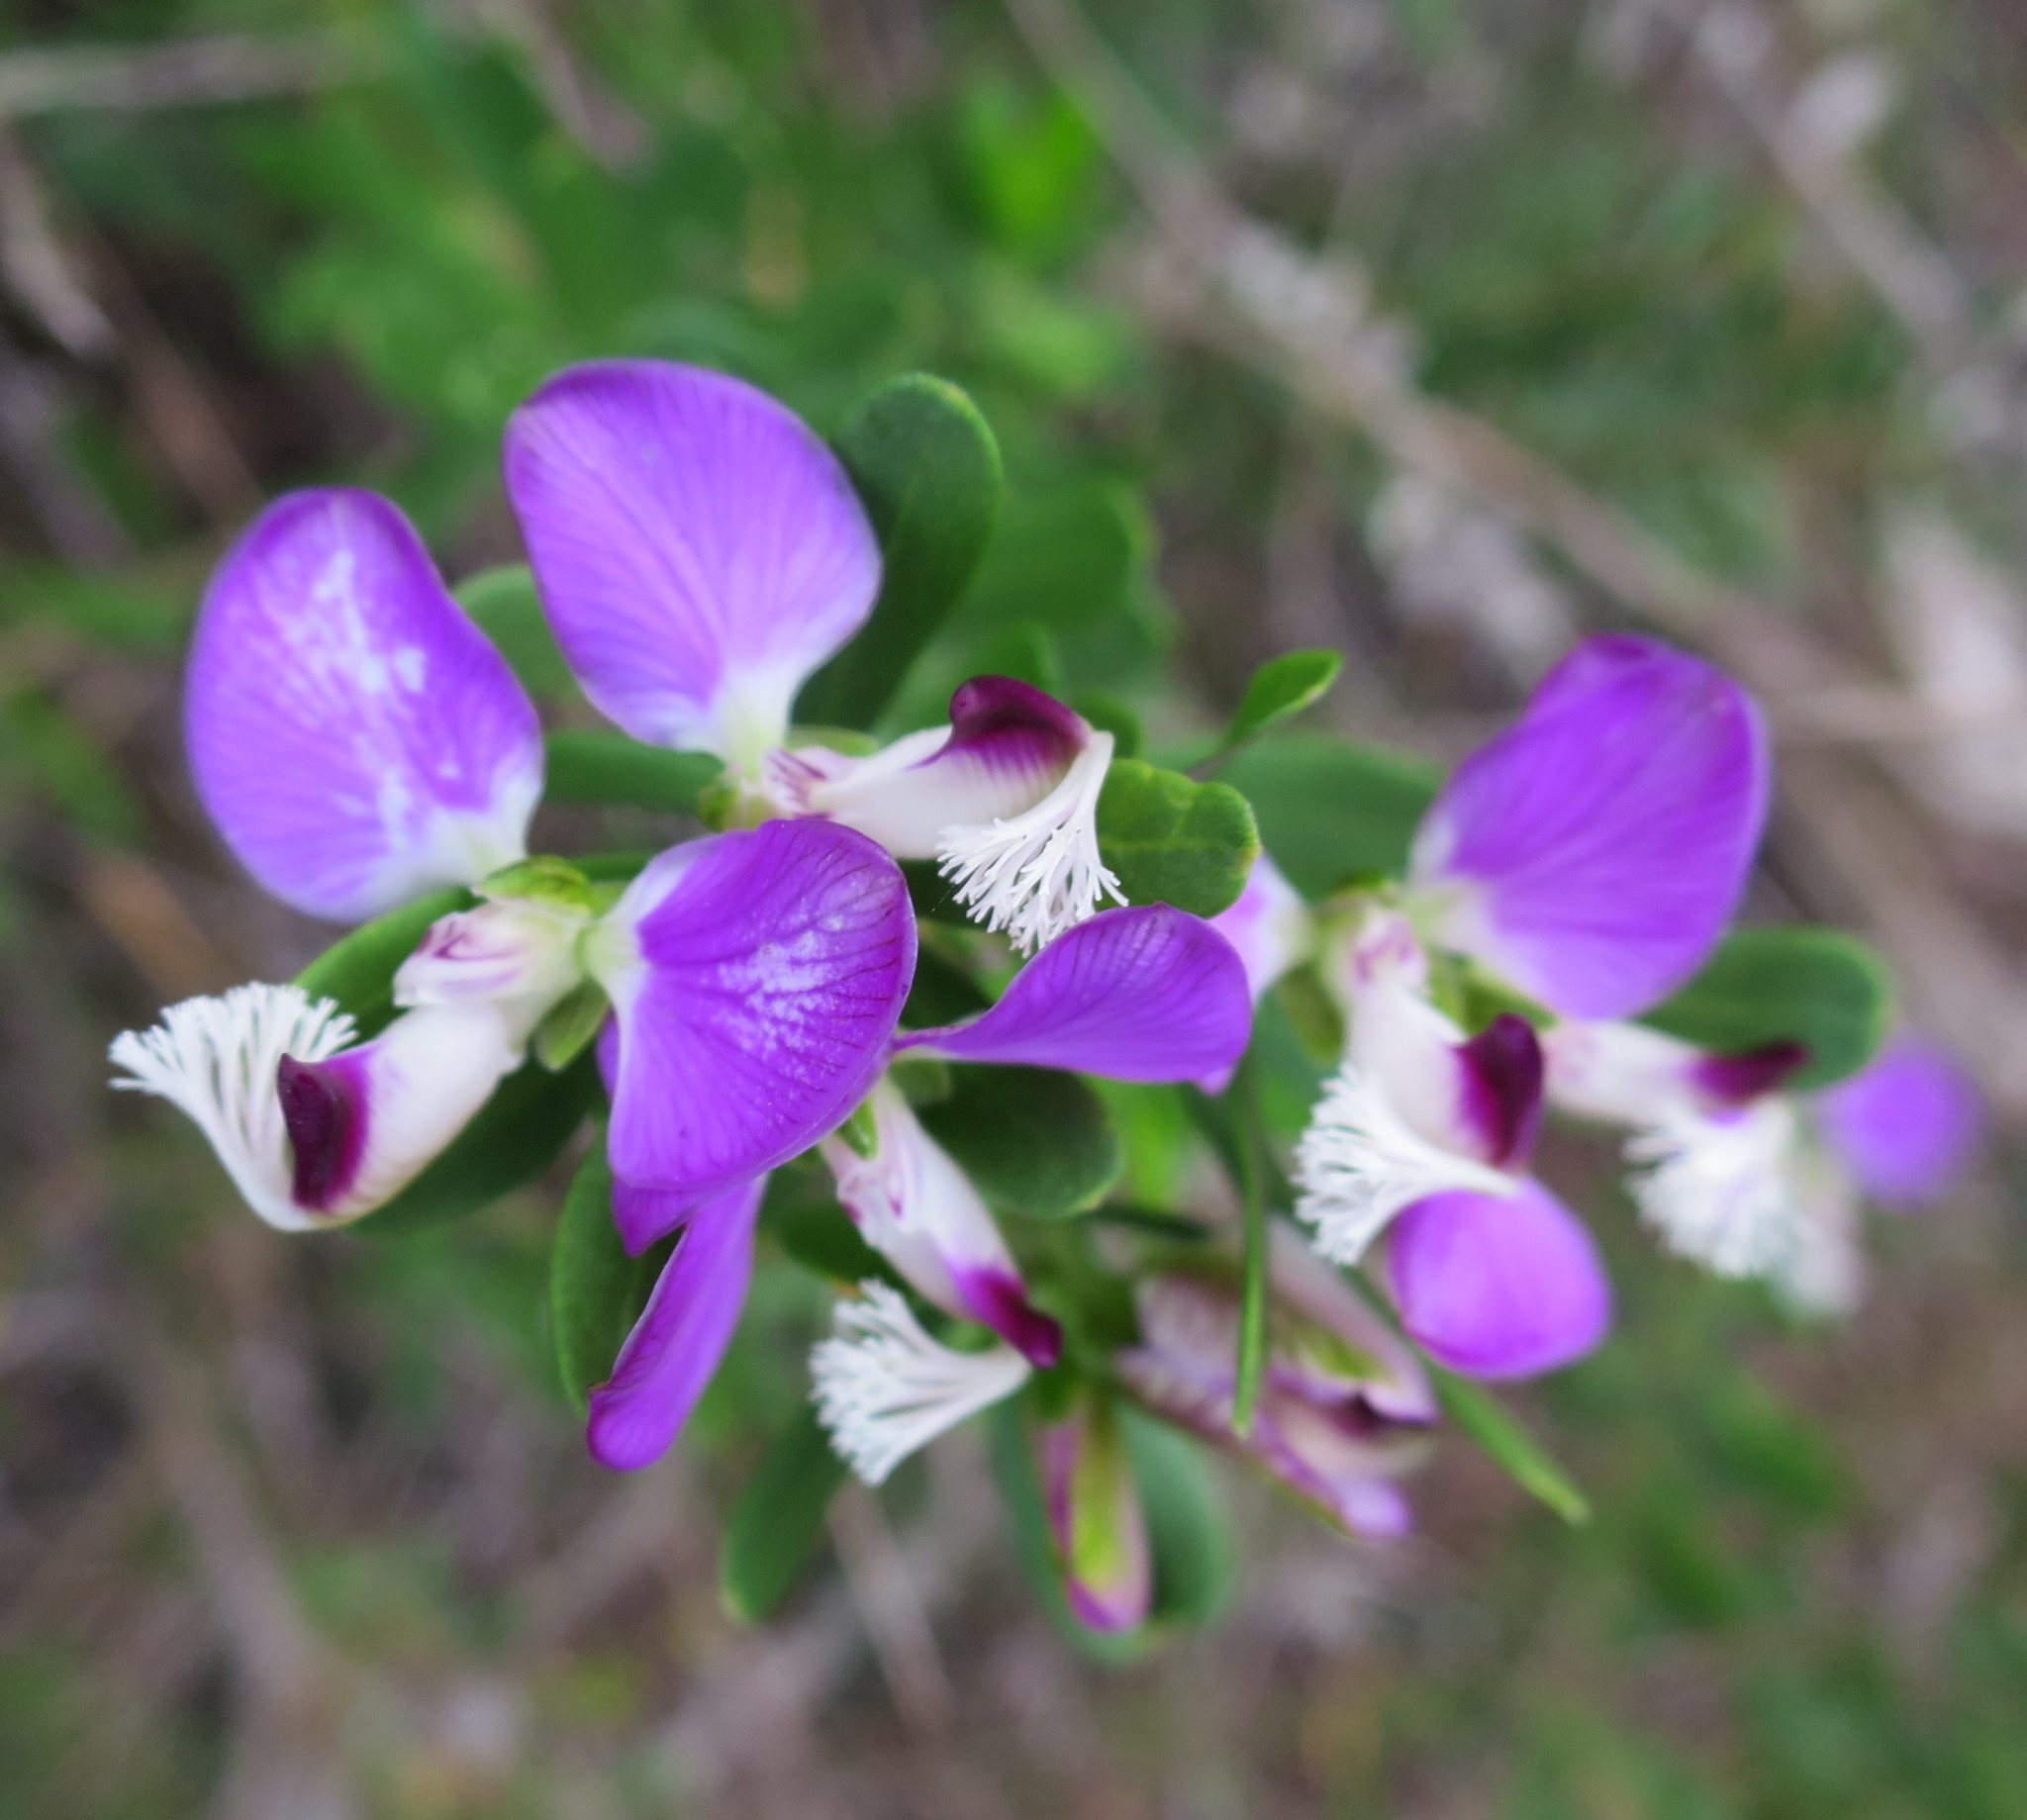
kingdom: Plantae
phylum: Tracheophyta
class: Magnoliopsida
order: Fabales
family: Polygalaceae
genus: Polygala
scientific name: Polygala myrtifolia
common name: Myrtle-leaf milkwort
